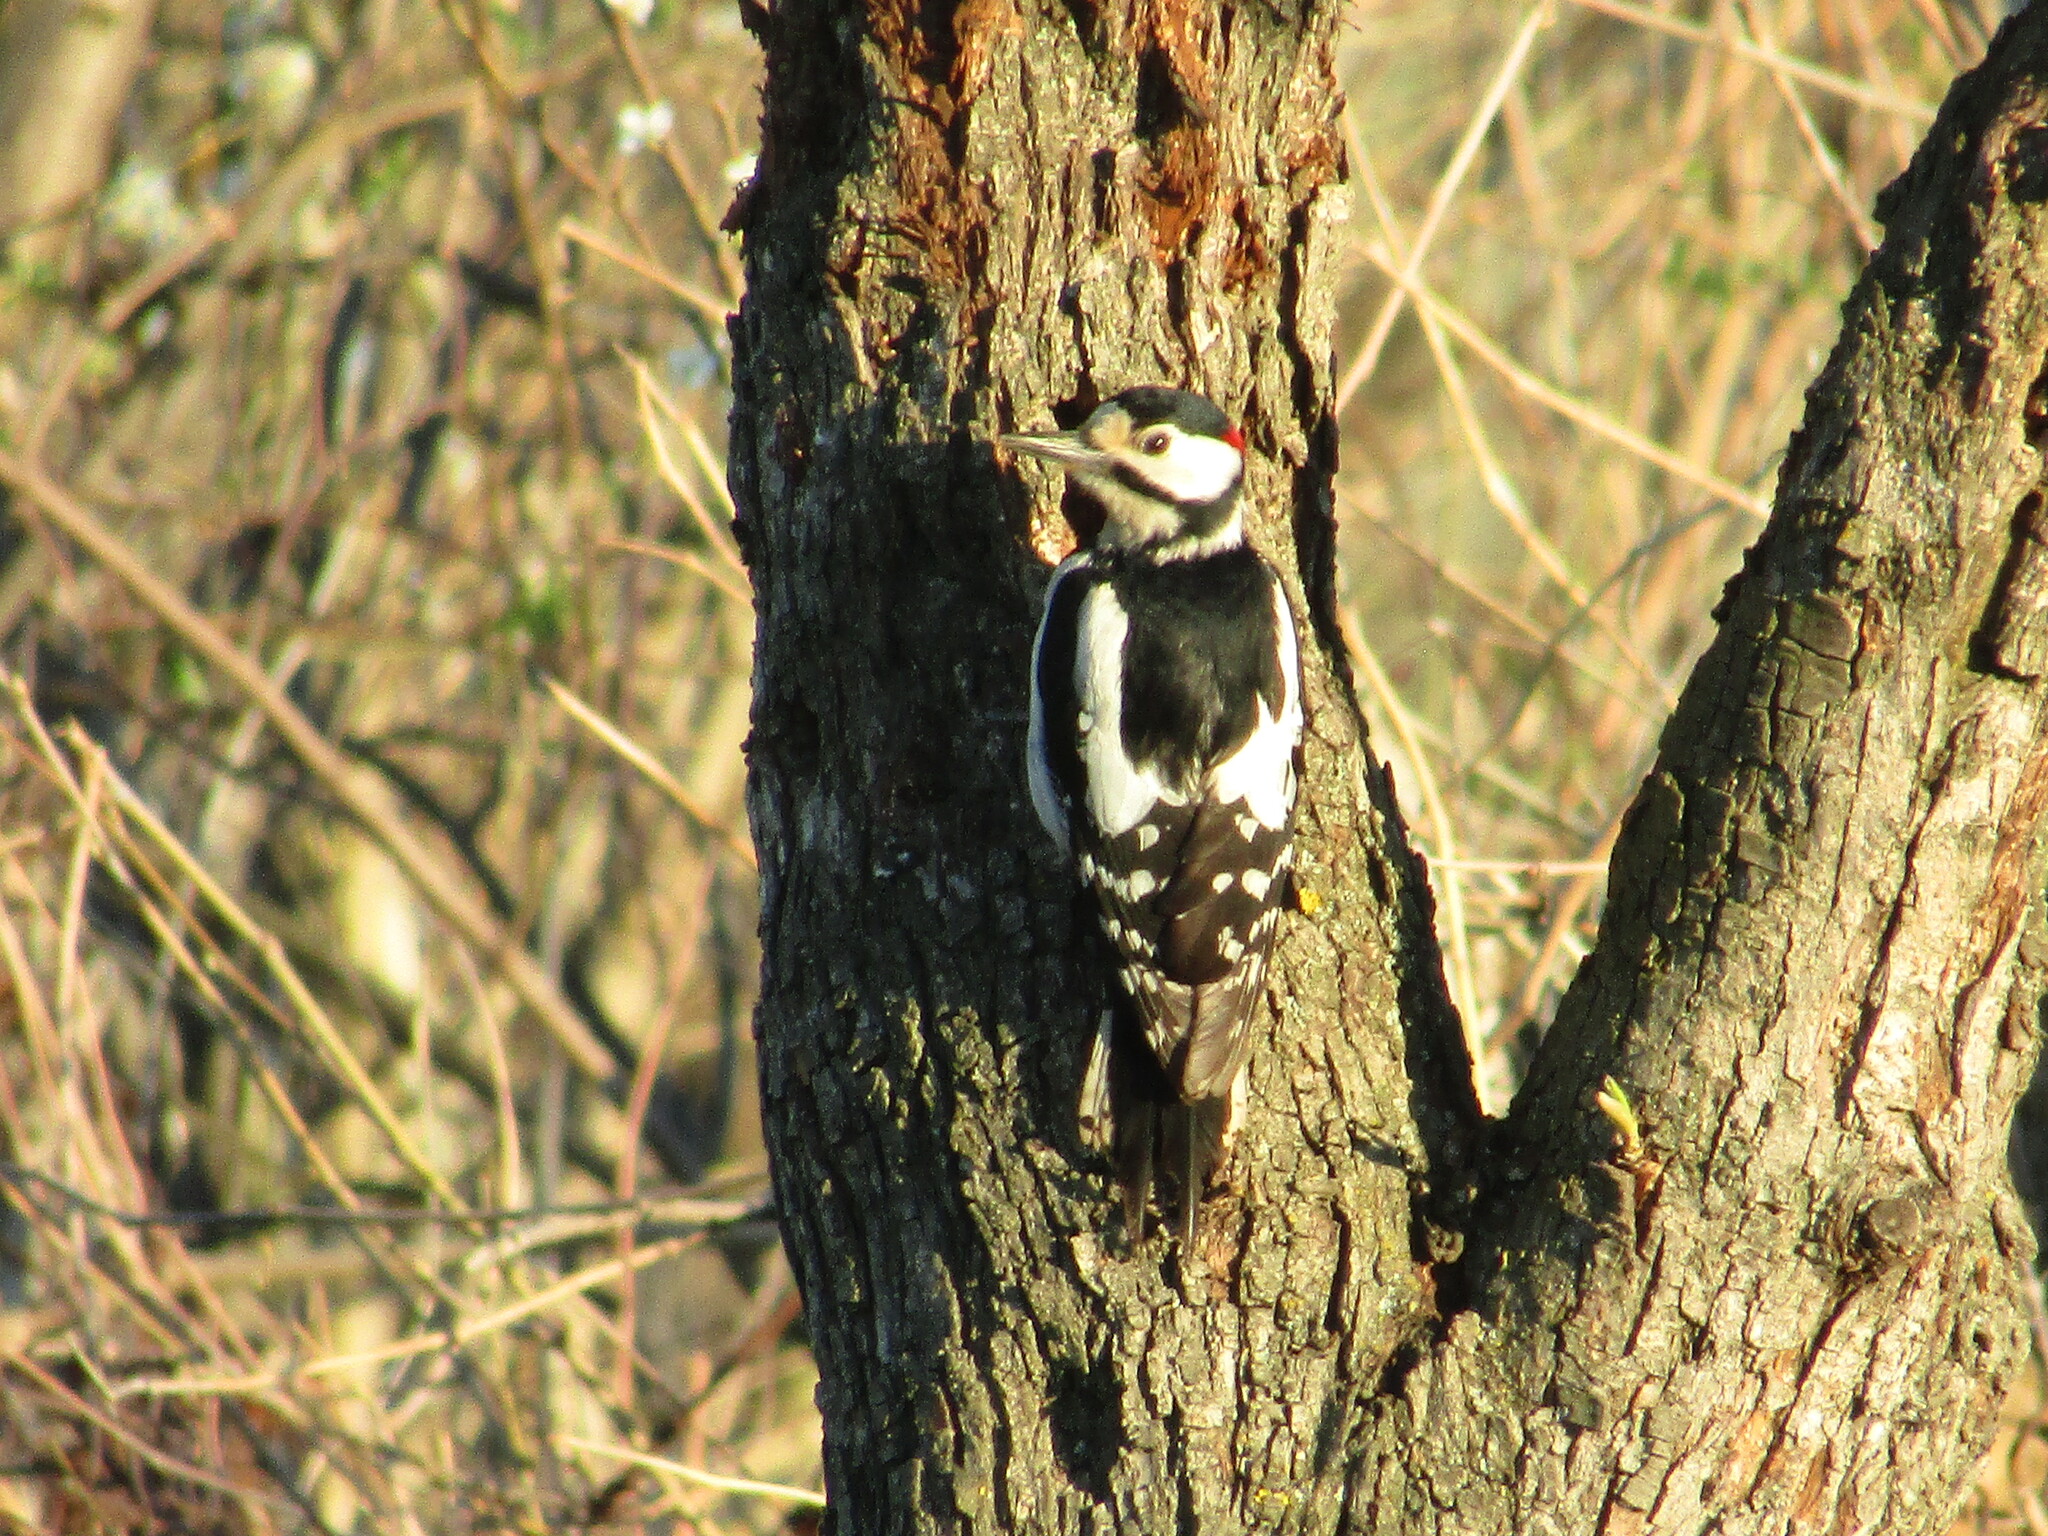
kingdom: Animalia
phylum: Chordata
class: Aves
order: Piciformes
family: Picidae
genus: Dendrocopos
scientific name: Dendrocopos major
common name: Great spotted woodpecker
